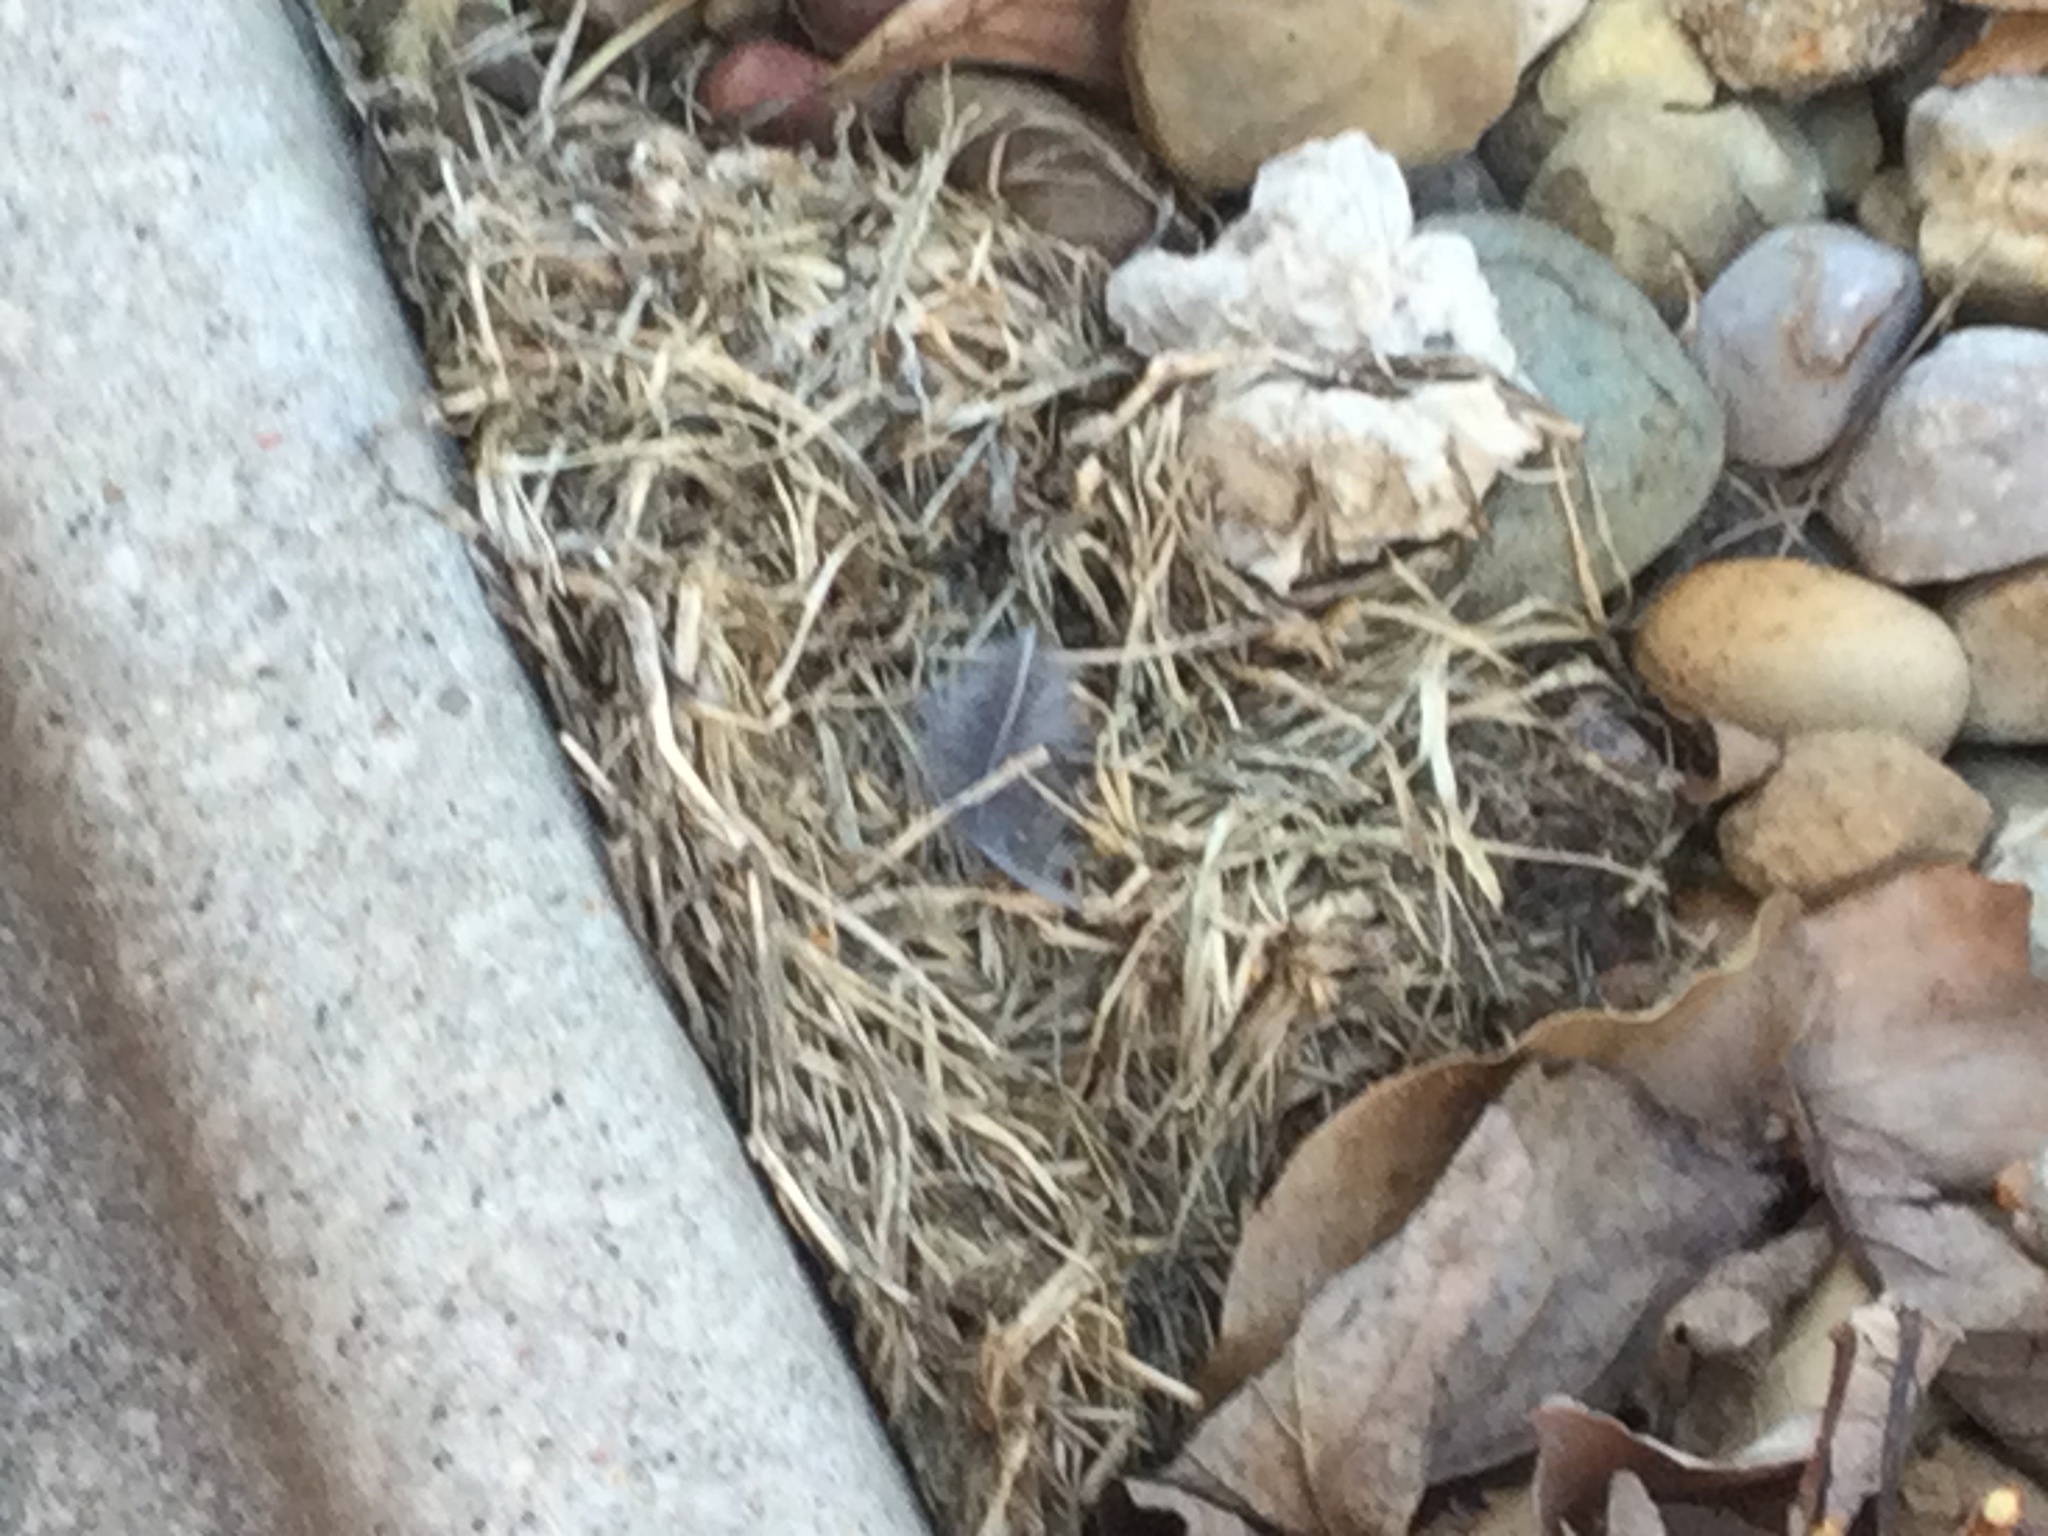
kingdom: Animalia
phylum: Chordata
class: Aves
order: Passeriformes
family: Passerellidae
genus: Junco
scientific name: Junco hyemalis
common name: Dark-eyed junco
